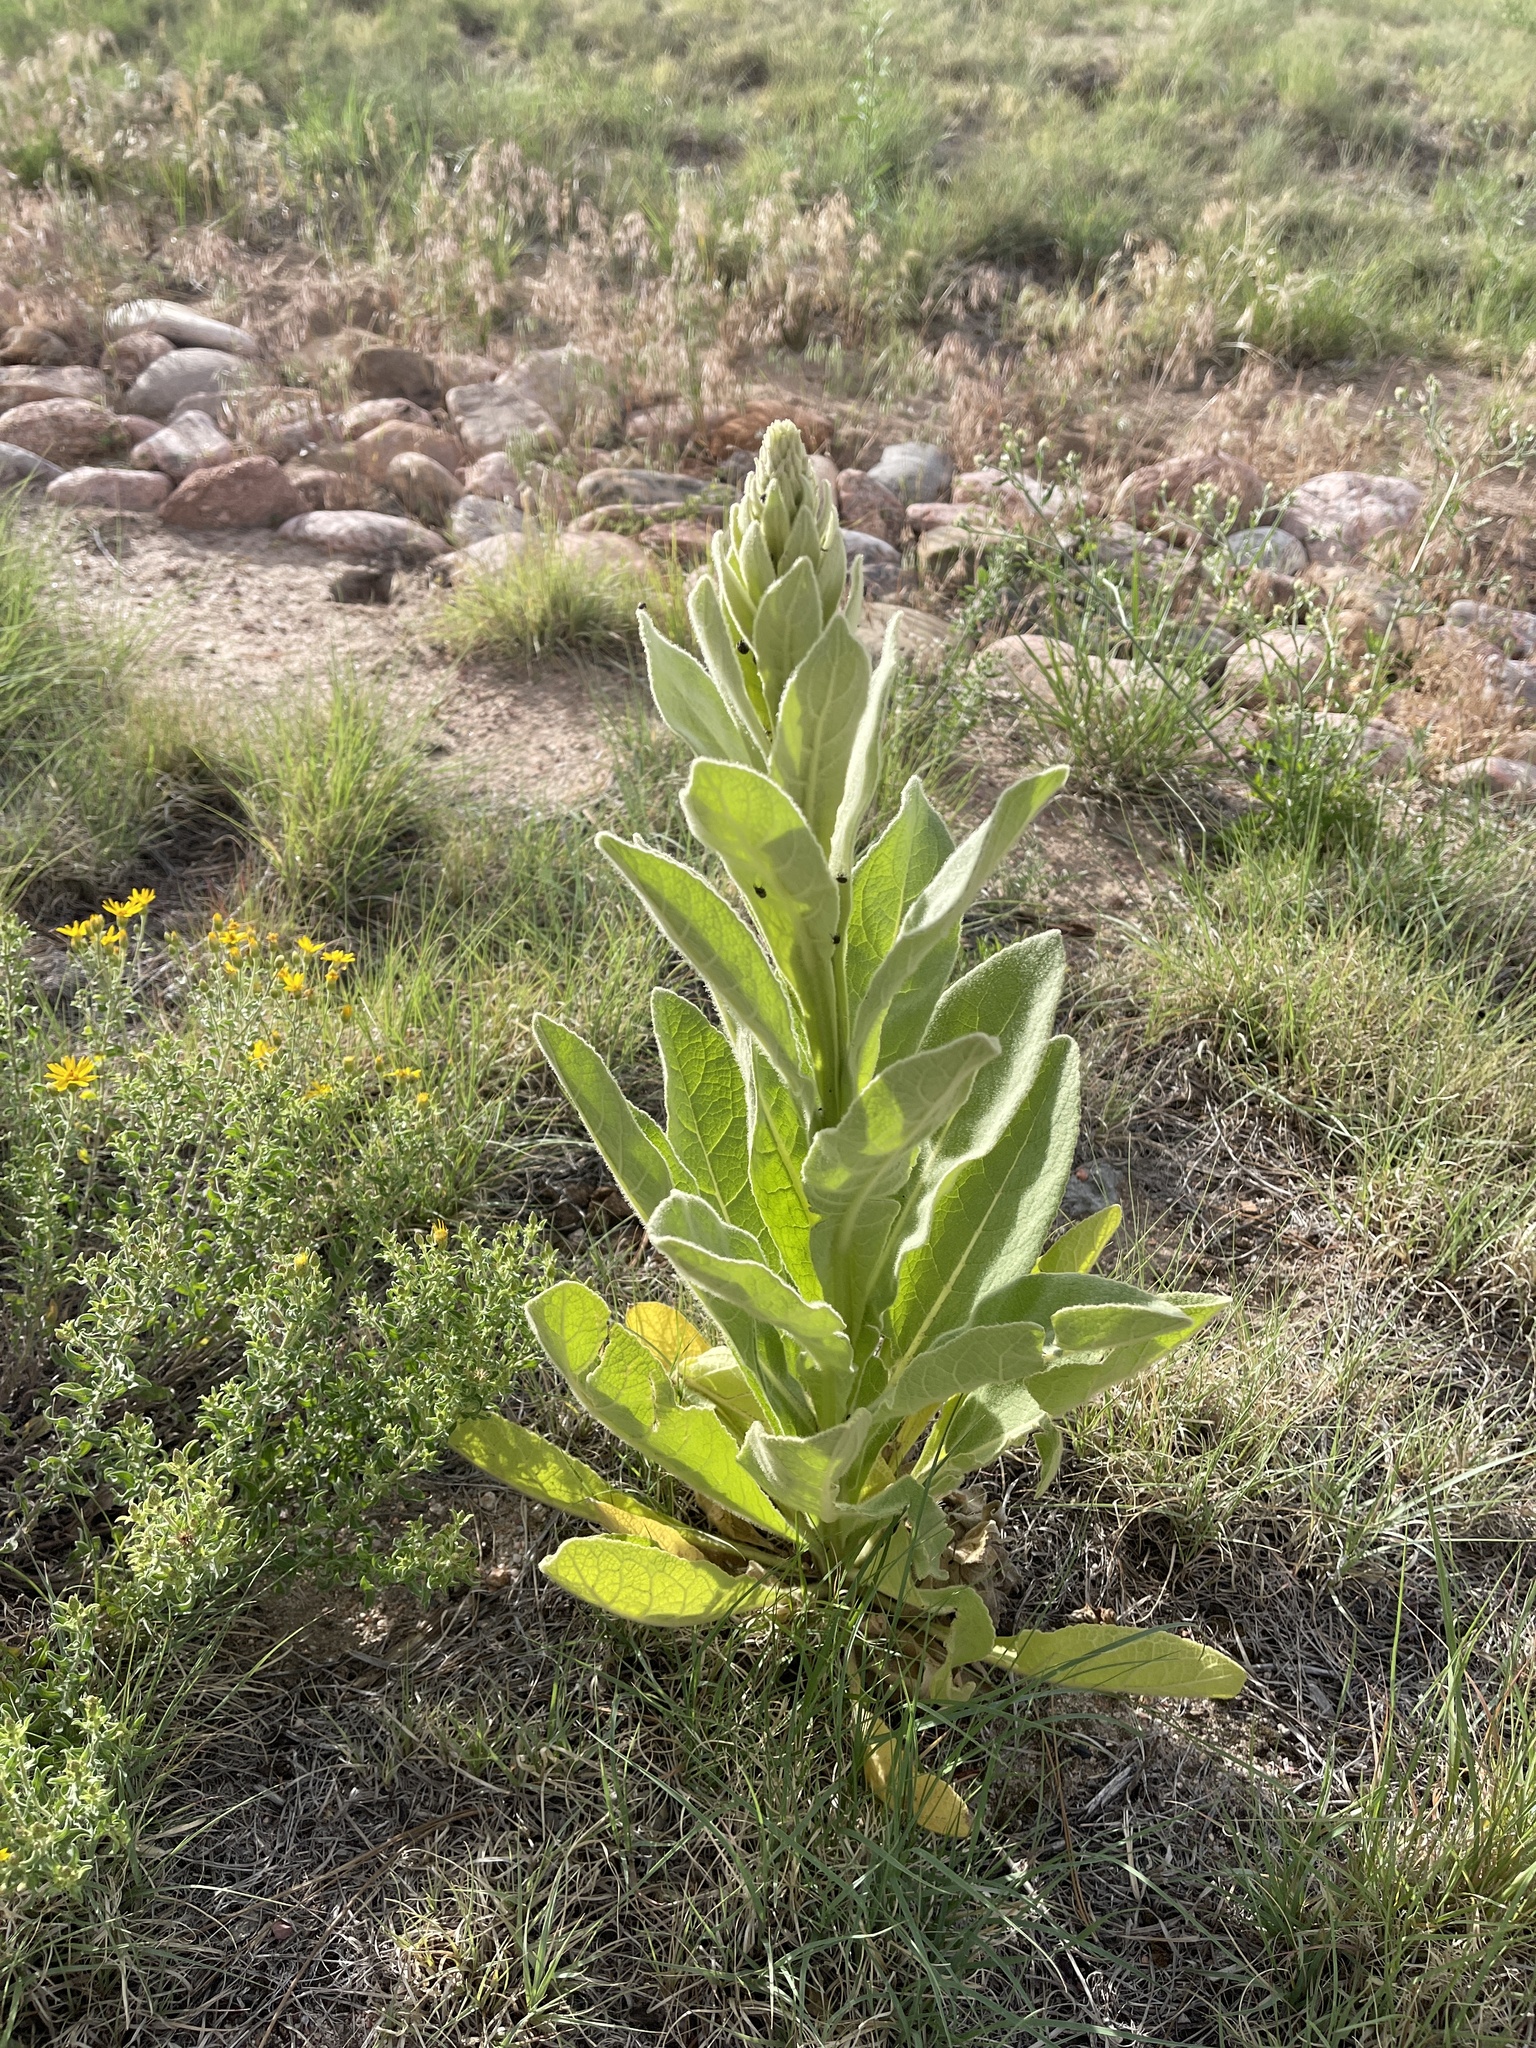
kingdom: Plantae
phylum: Tracheophyta
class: Magnoliopsida
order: Lamiales
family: Scrophulariaceae
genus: Verbascum
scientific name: Verbascum thapsus
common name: Common mullein
